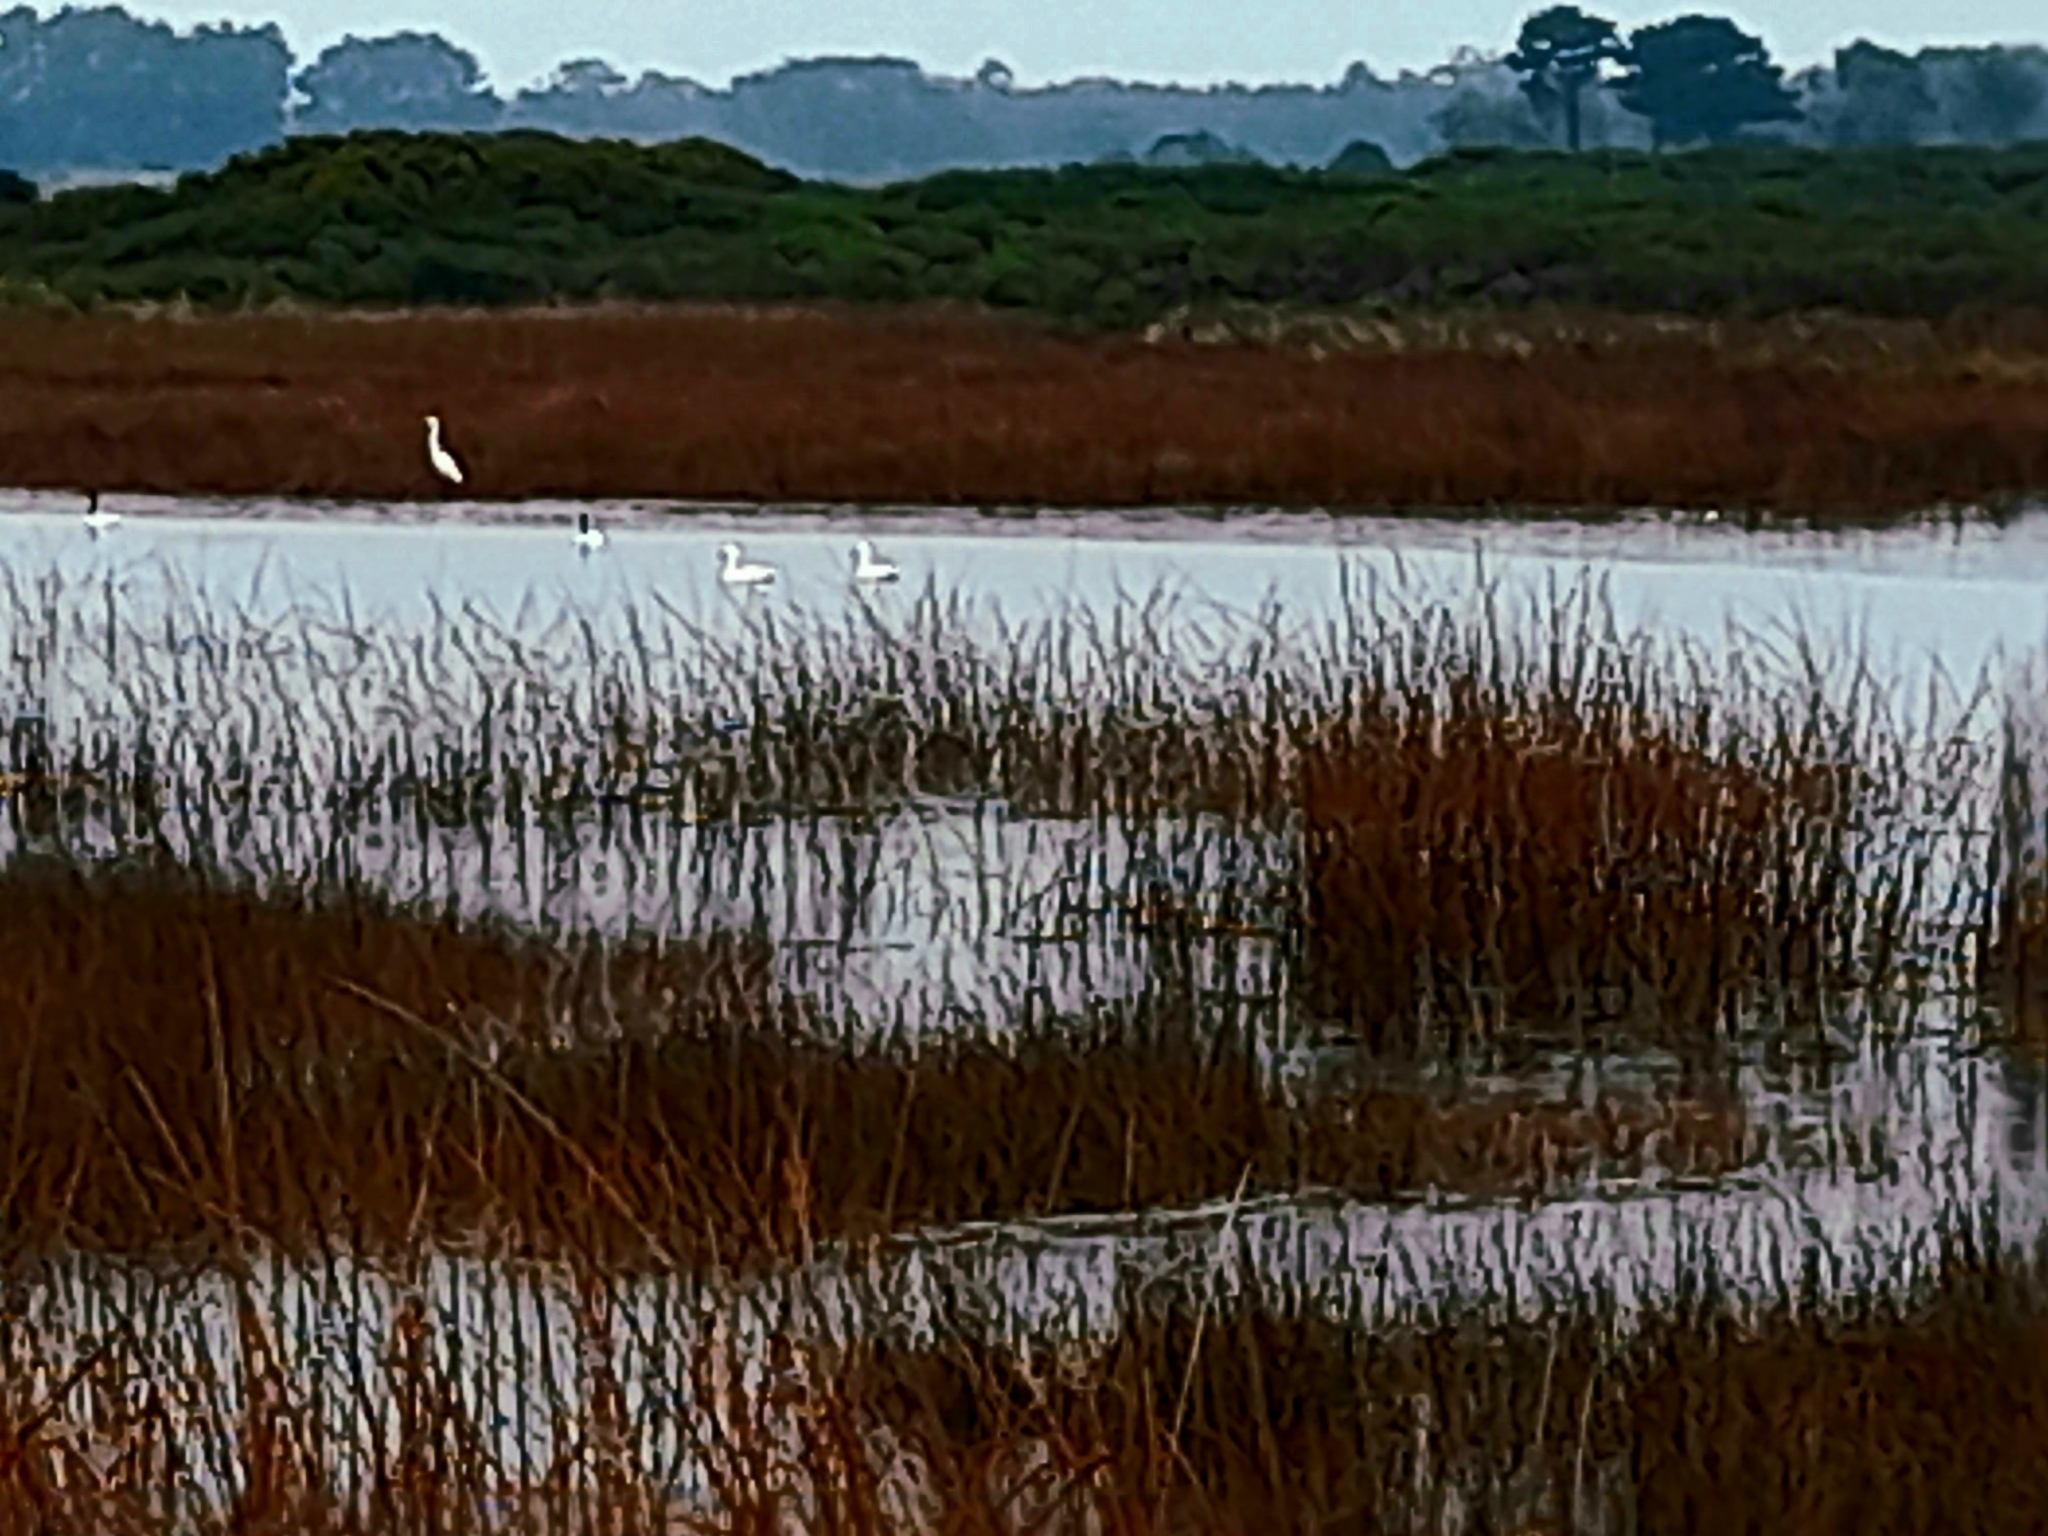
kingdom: Animalia
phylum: Chordata
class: Aves
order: Anseriformes
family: Anatidae
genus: Coscoroba
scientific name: Coscoroba coscoroba
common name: Coscoroba swan
